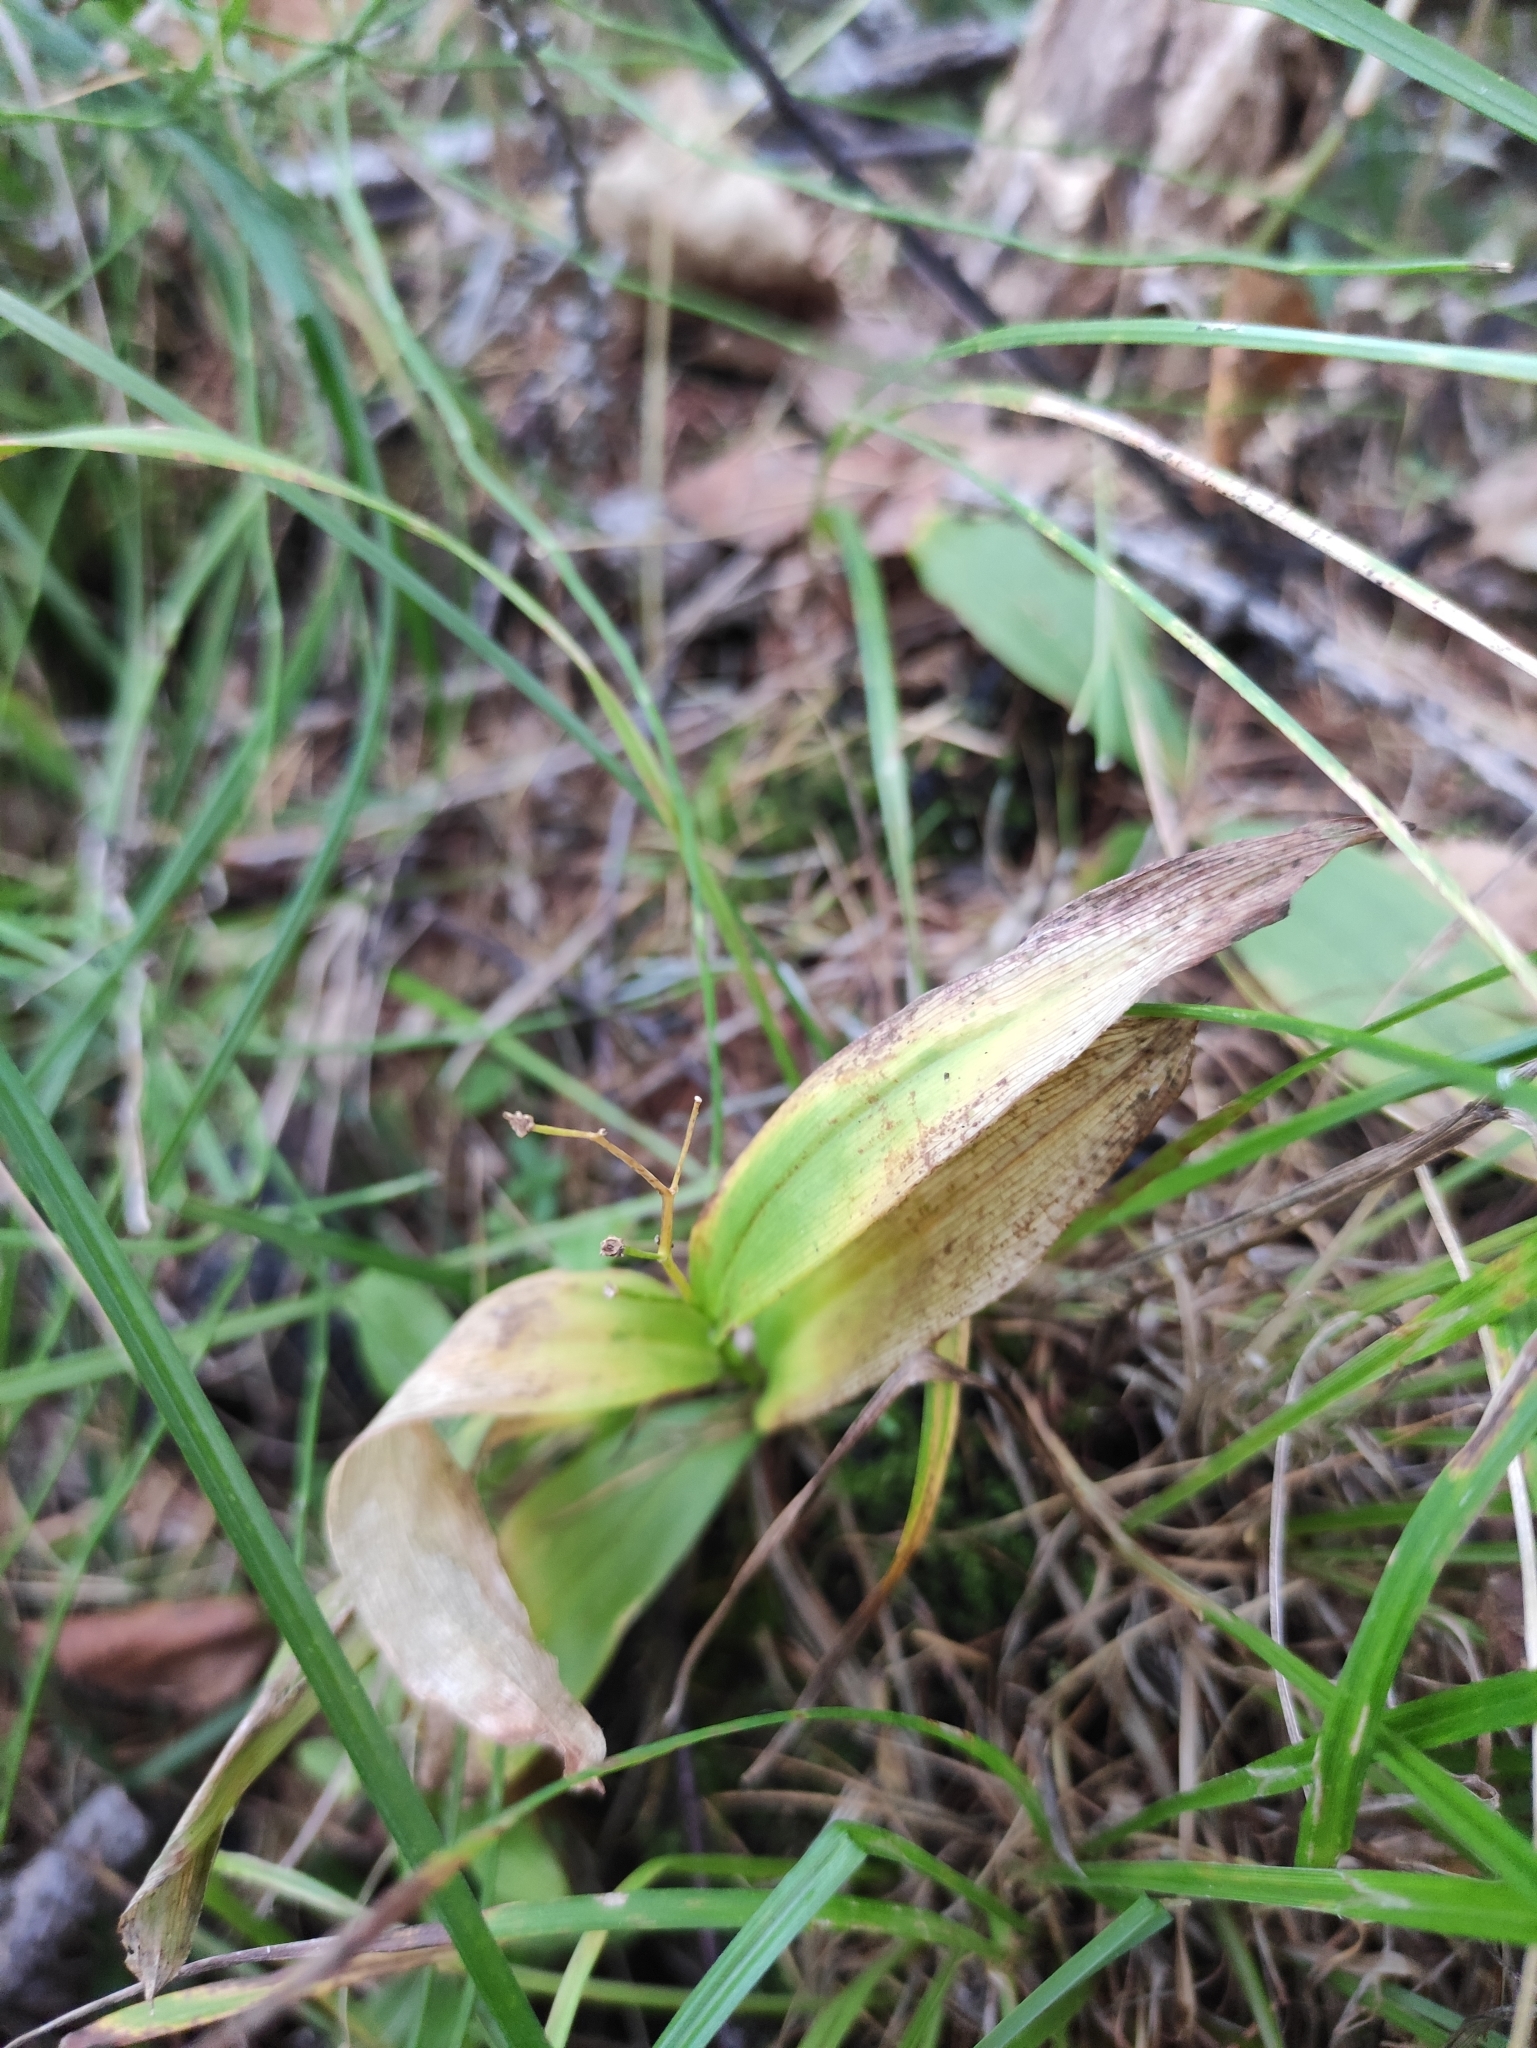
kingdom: Plantae
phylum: Tracheophyta
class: Liliopsida
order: Asparagales
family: Asparagaceae
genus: Maianthemum
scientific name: Maianthemum trifolium
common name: Swamp false solomon's seal
